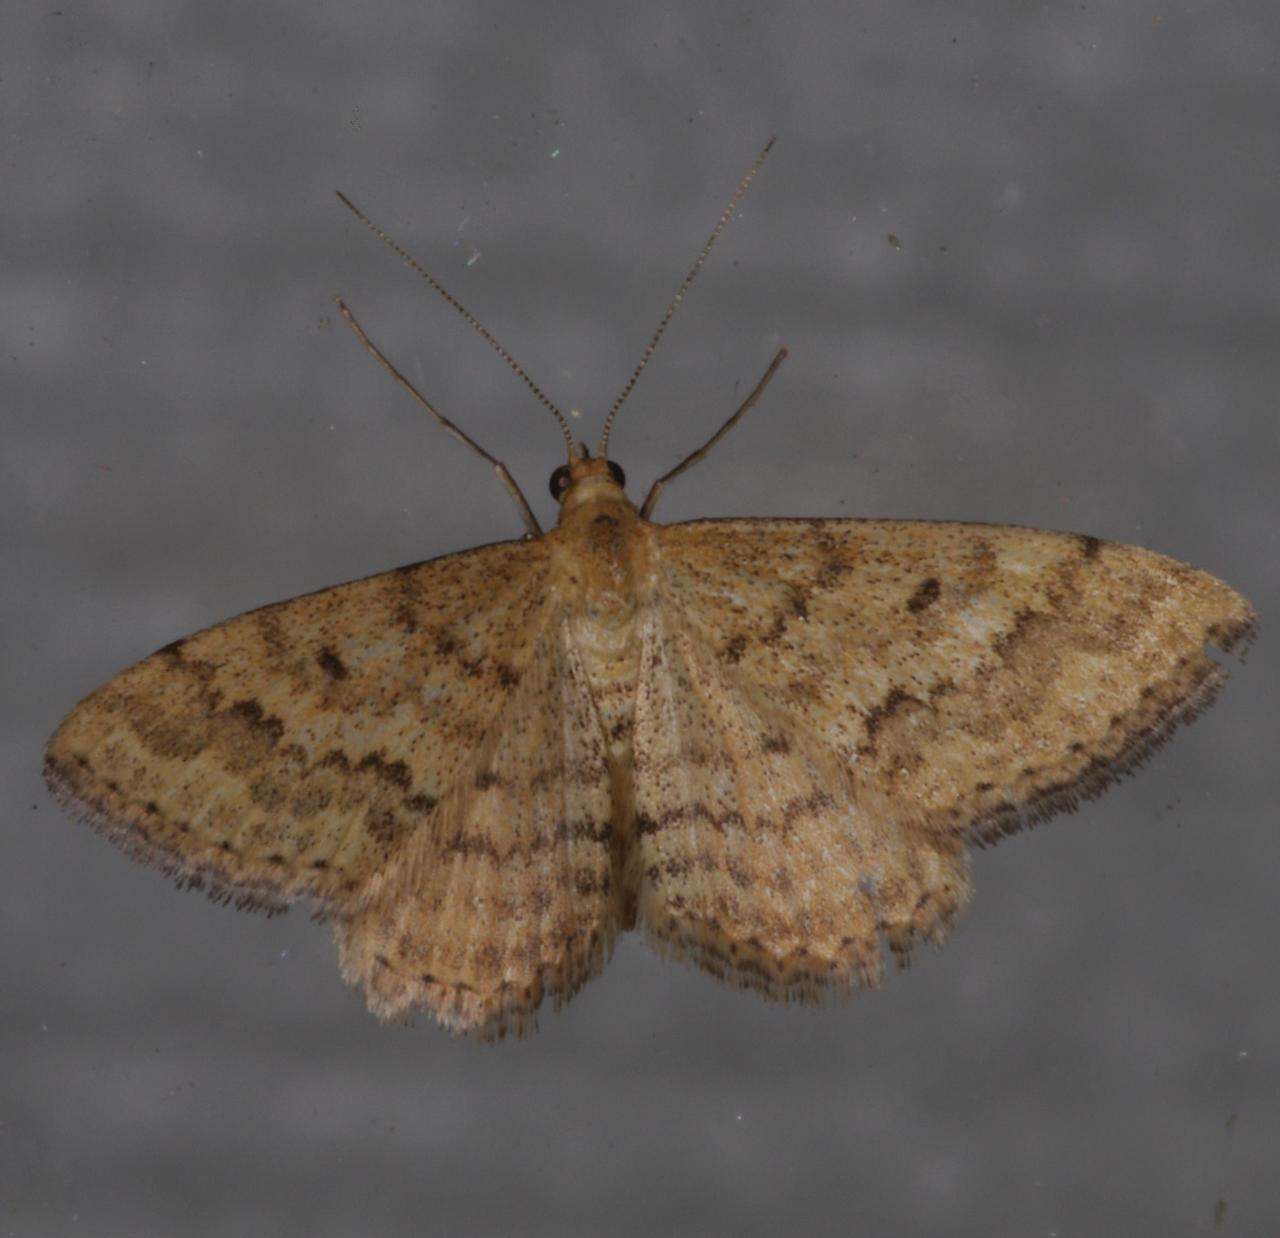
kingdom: Animalia
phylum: Arthropoda
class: Insecta
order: Lepidoptera
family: Geometridae
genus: Scopula
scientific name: Scopula rubraria
